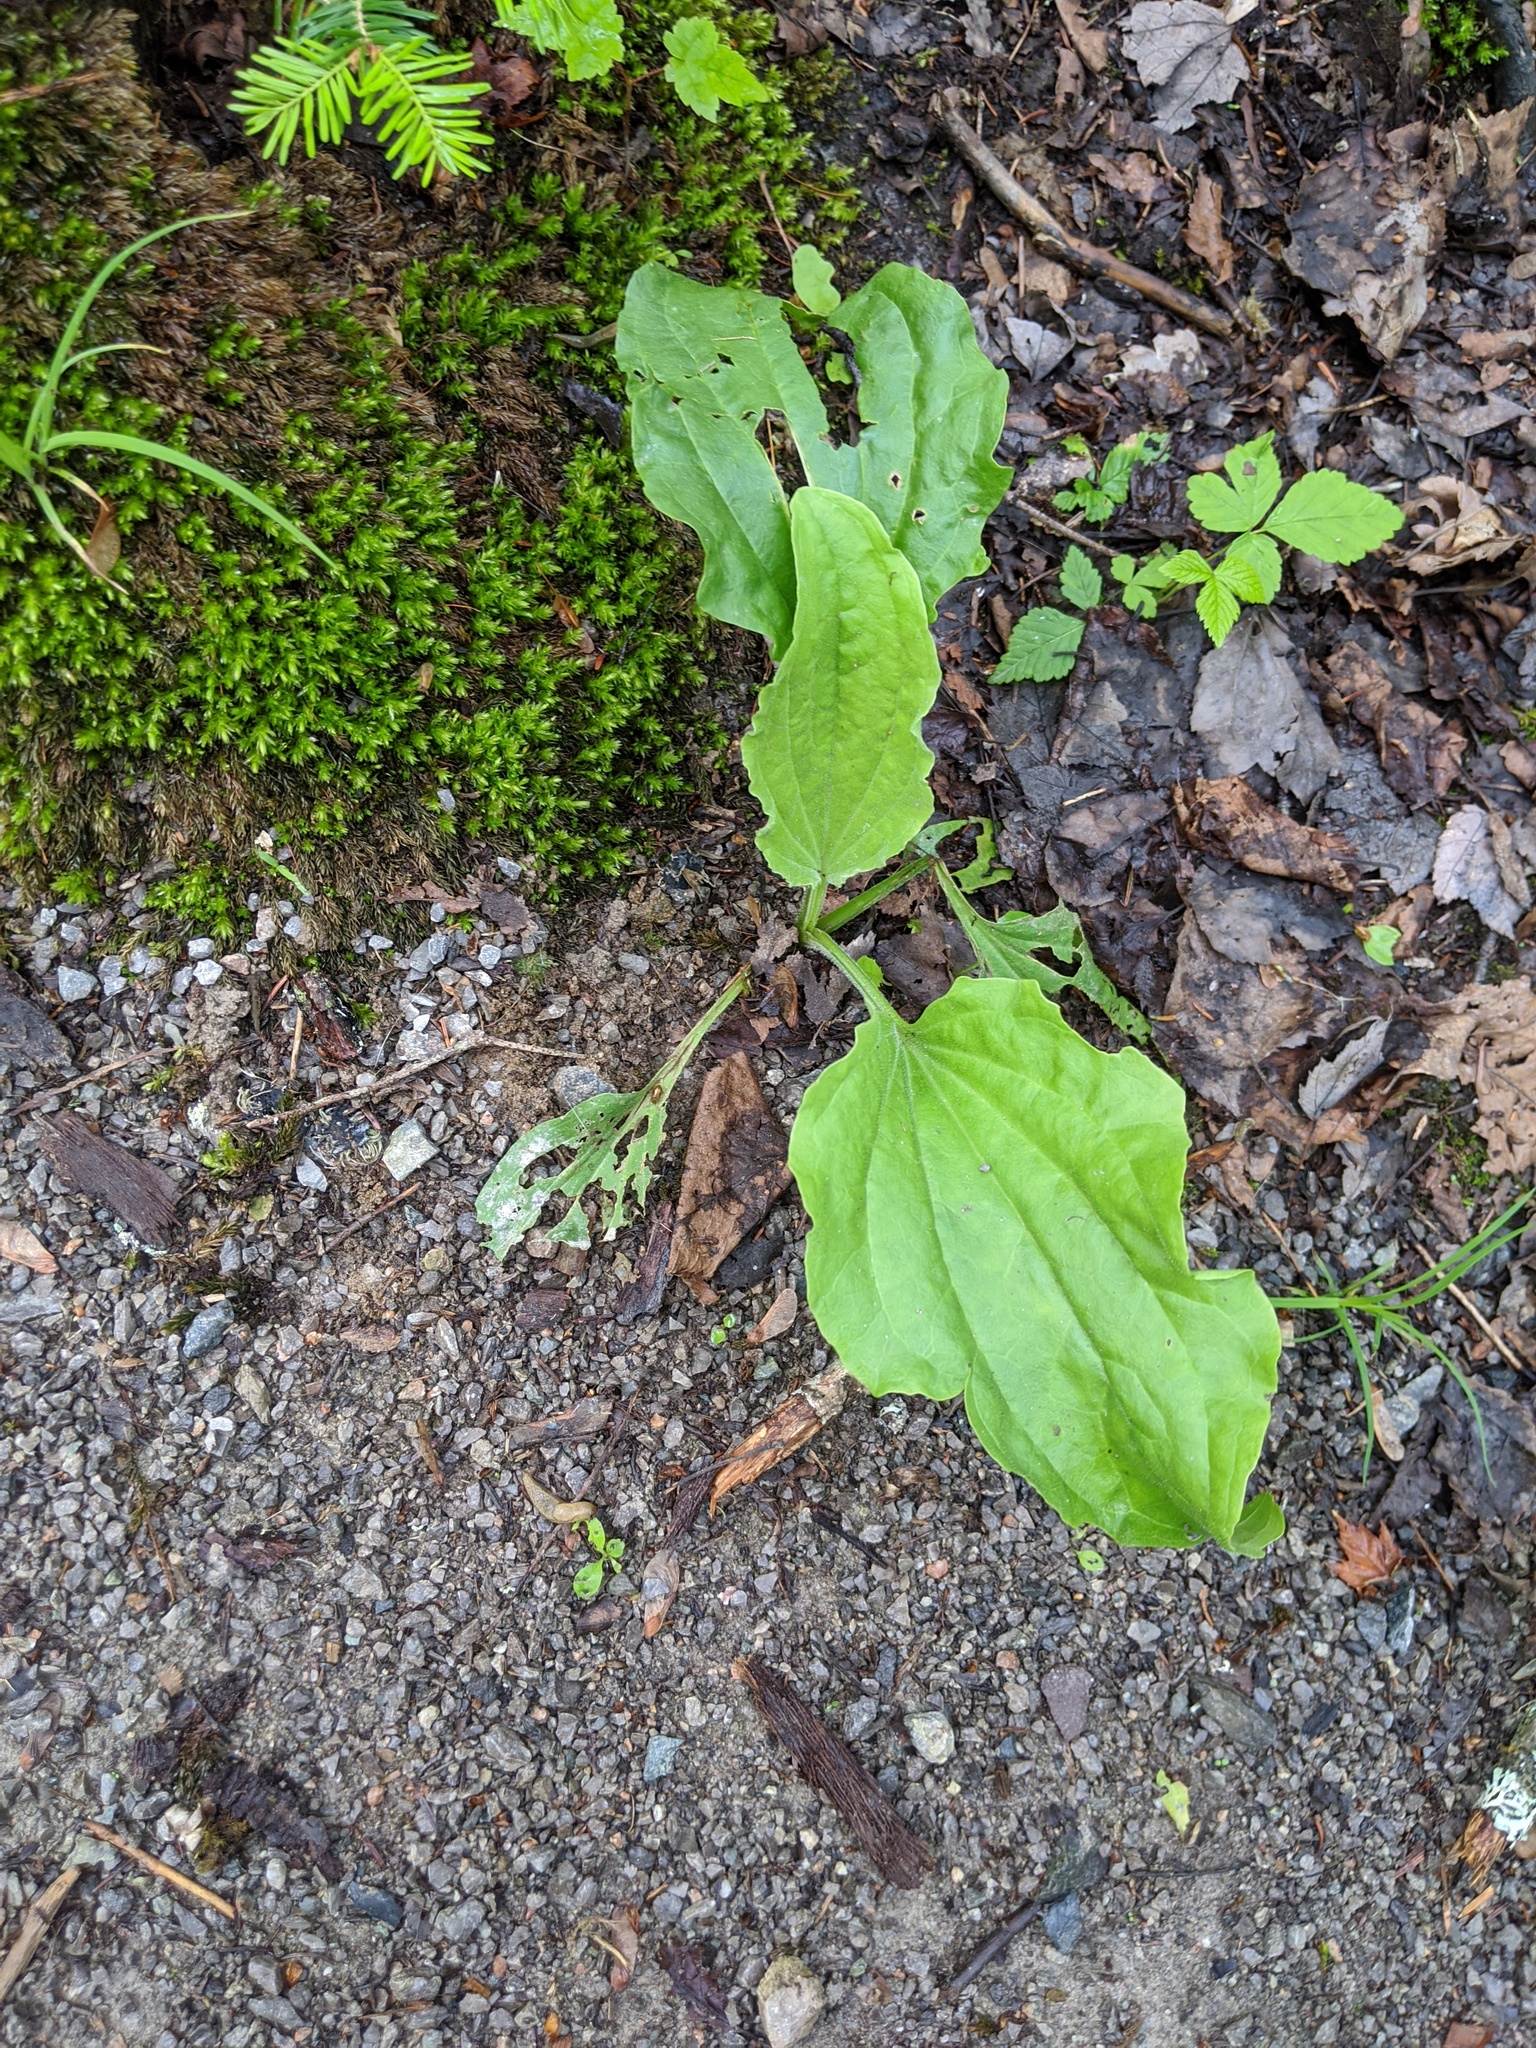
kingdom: Plantae
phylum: Tracheophyta
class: Magnoliopsida
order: Lamiales
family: Plantaginaceae
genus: Plantago
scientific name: Plantago major
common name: Common plantain
